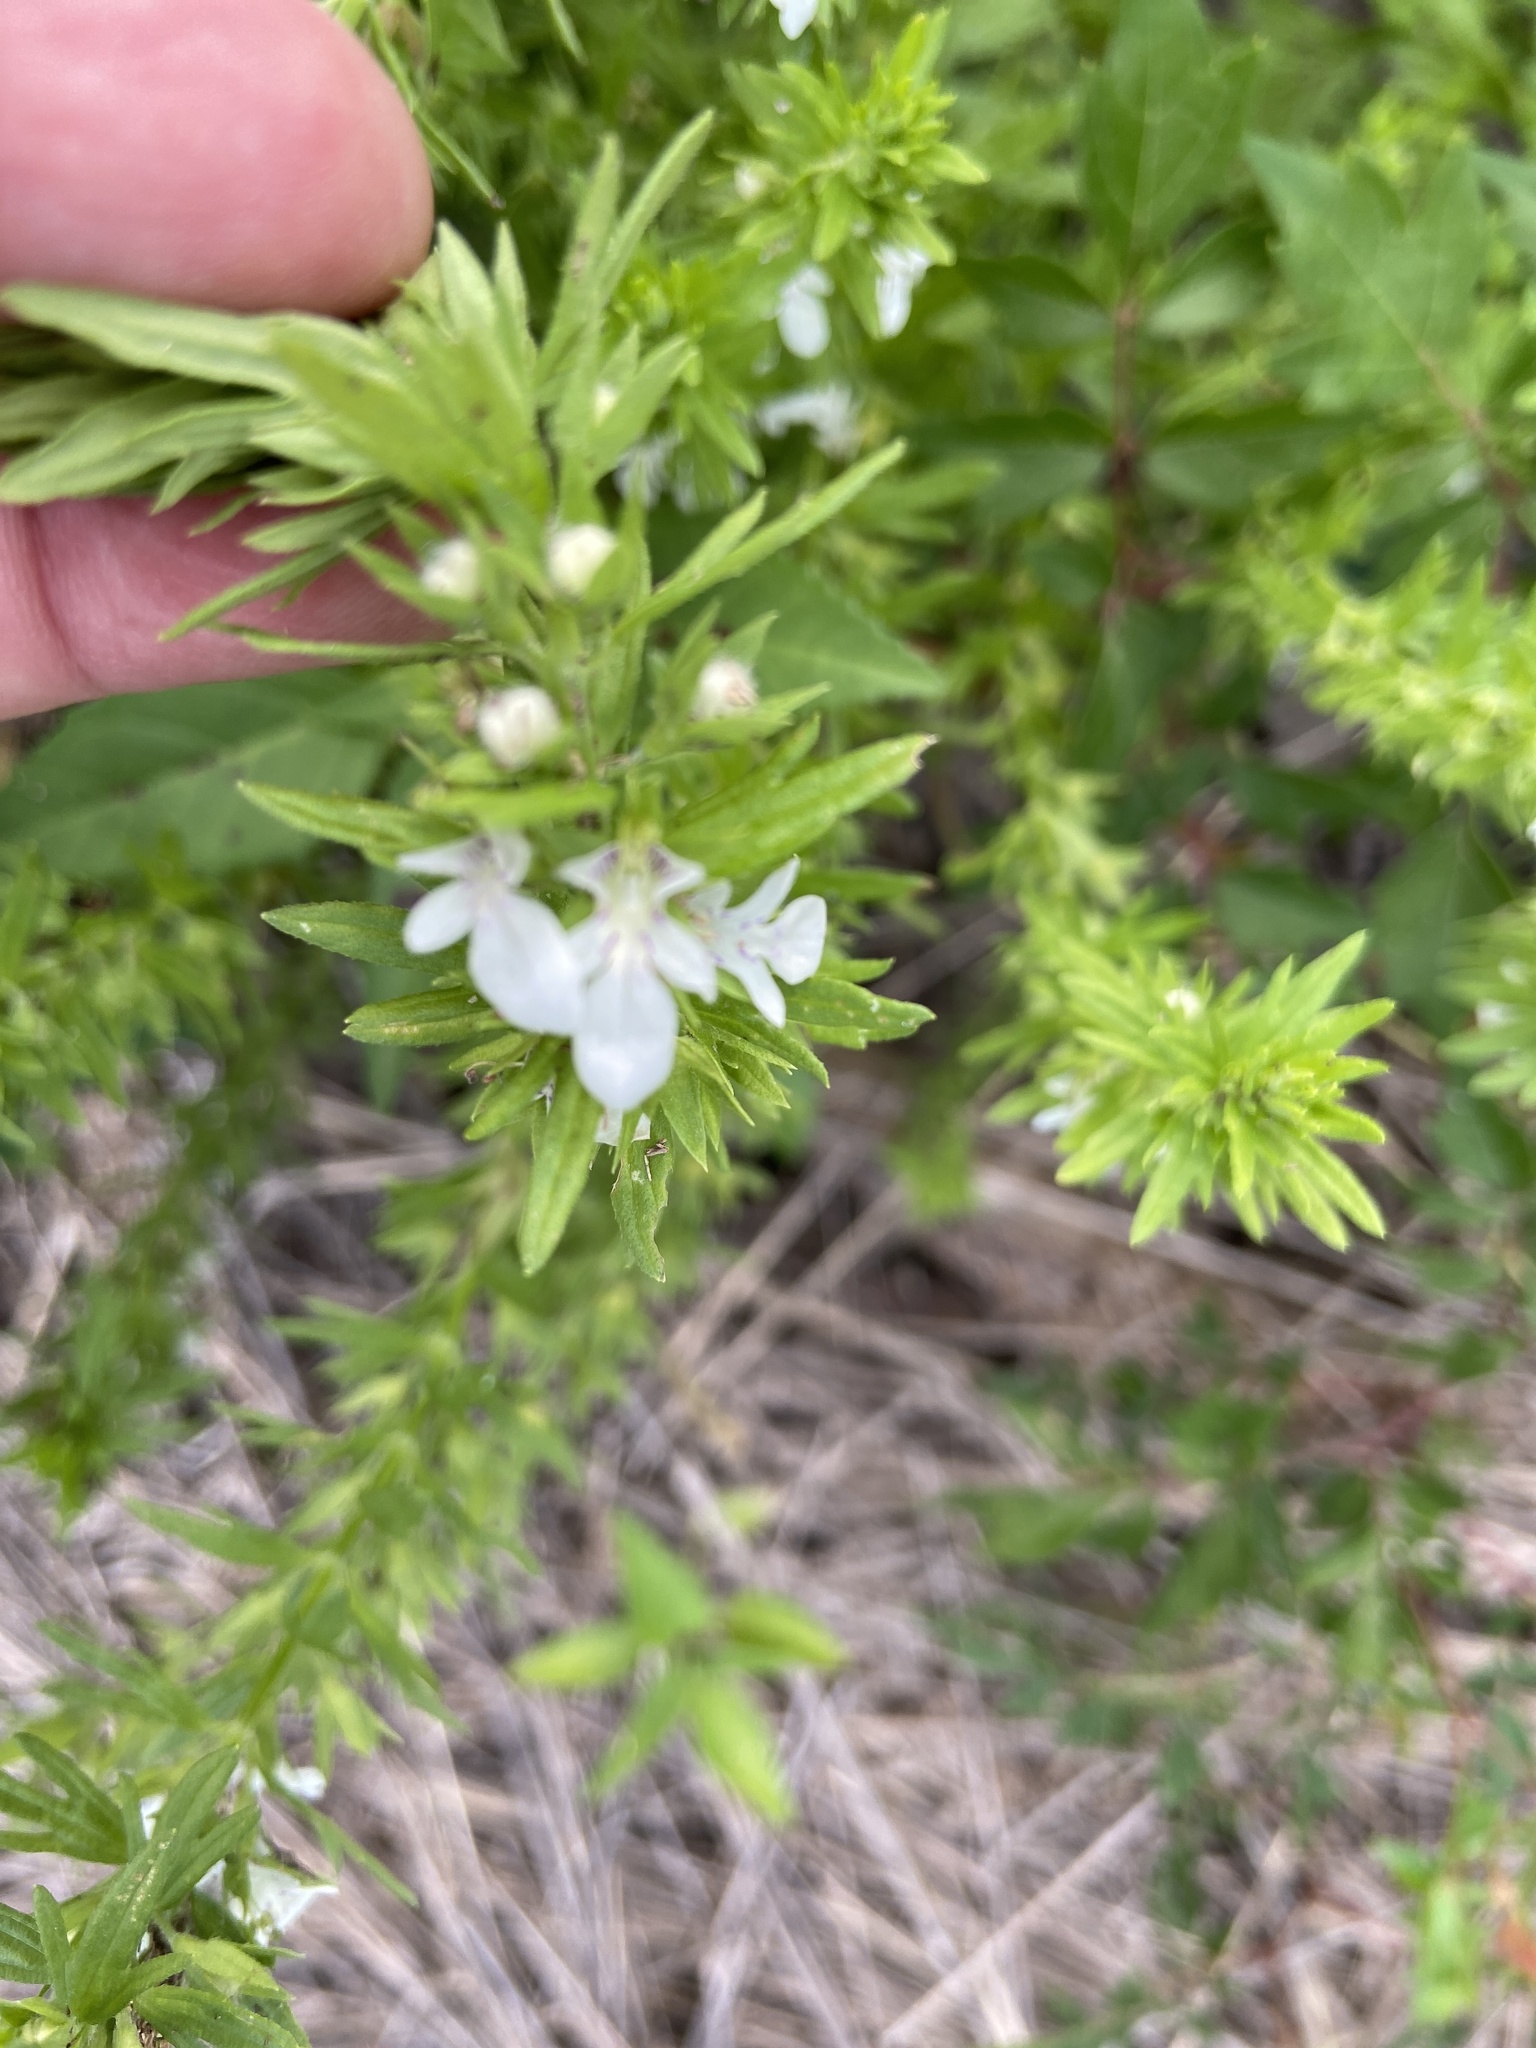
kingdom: Plantae
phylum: Tracheophyta
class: Magnoliopsida
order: Lamiales
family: Lamiaceae
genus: Teucrium
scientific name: Teucrium cubense
